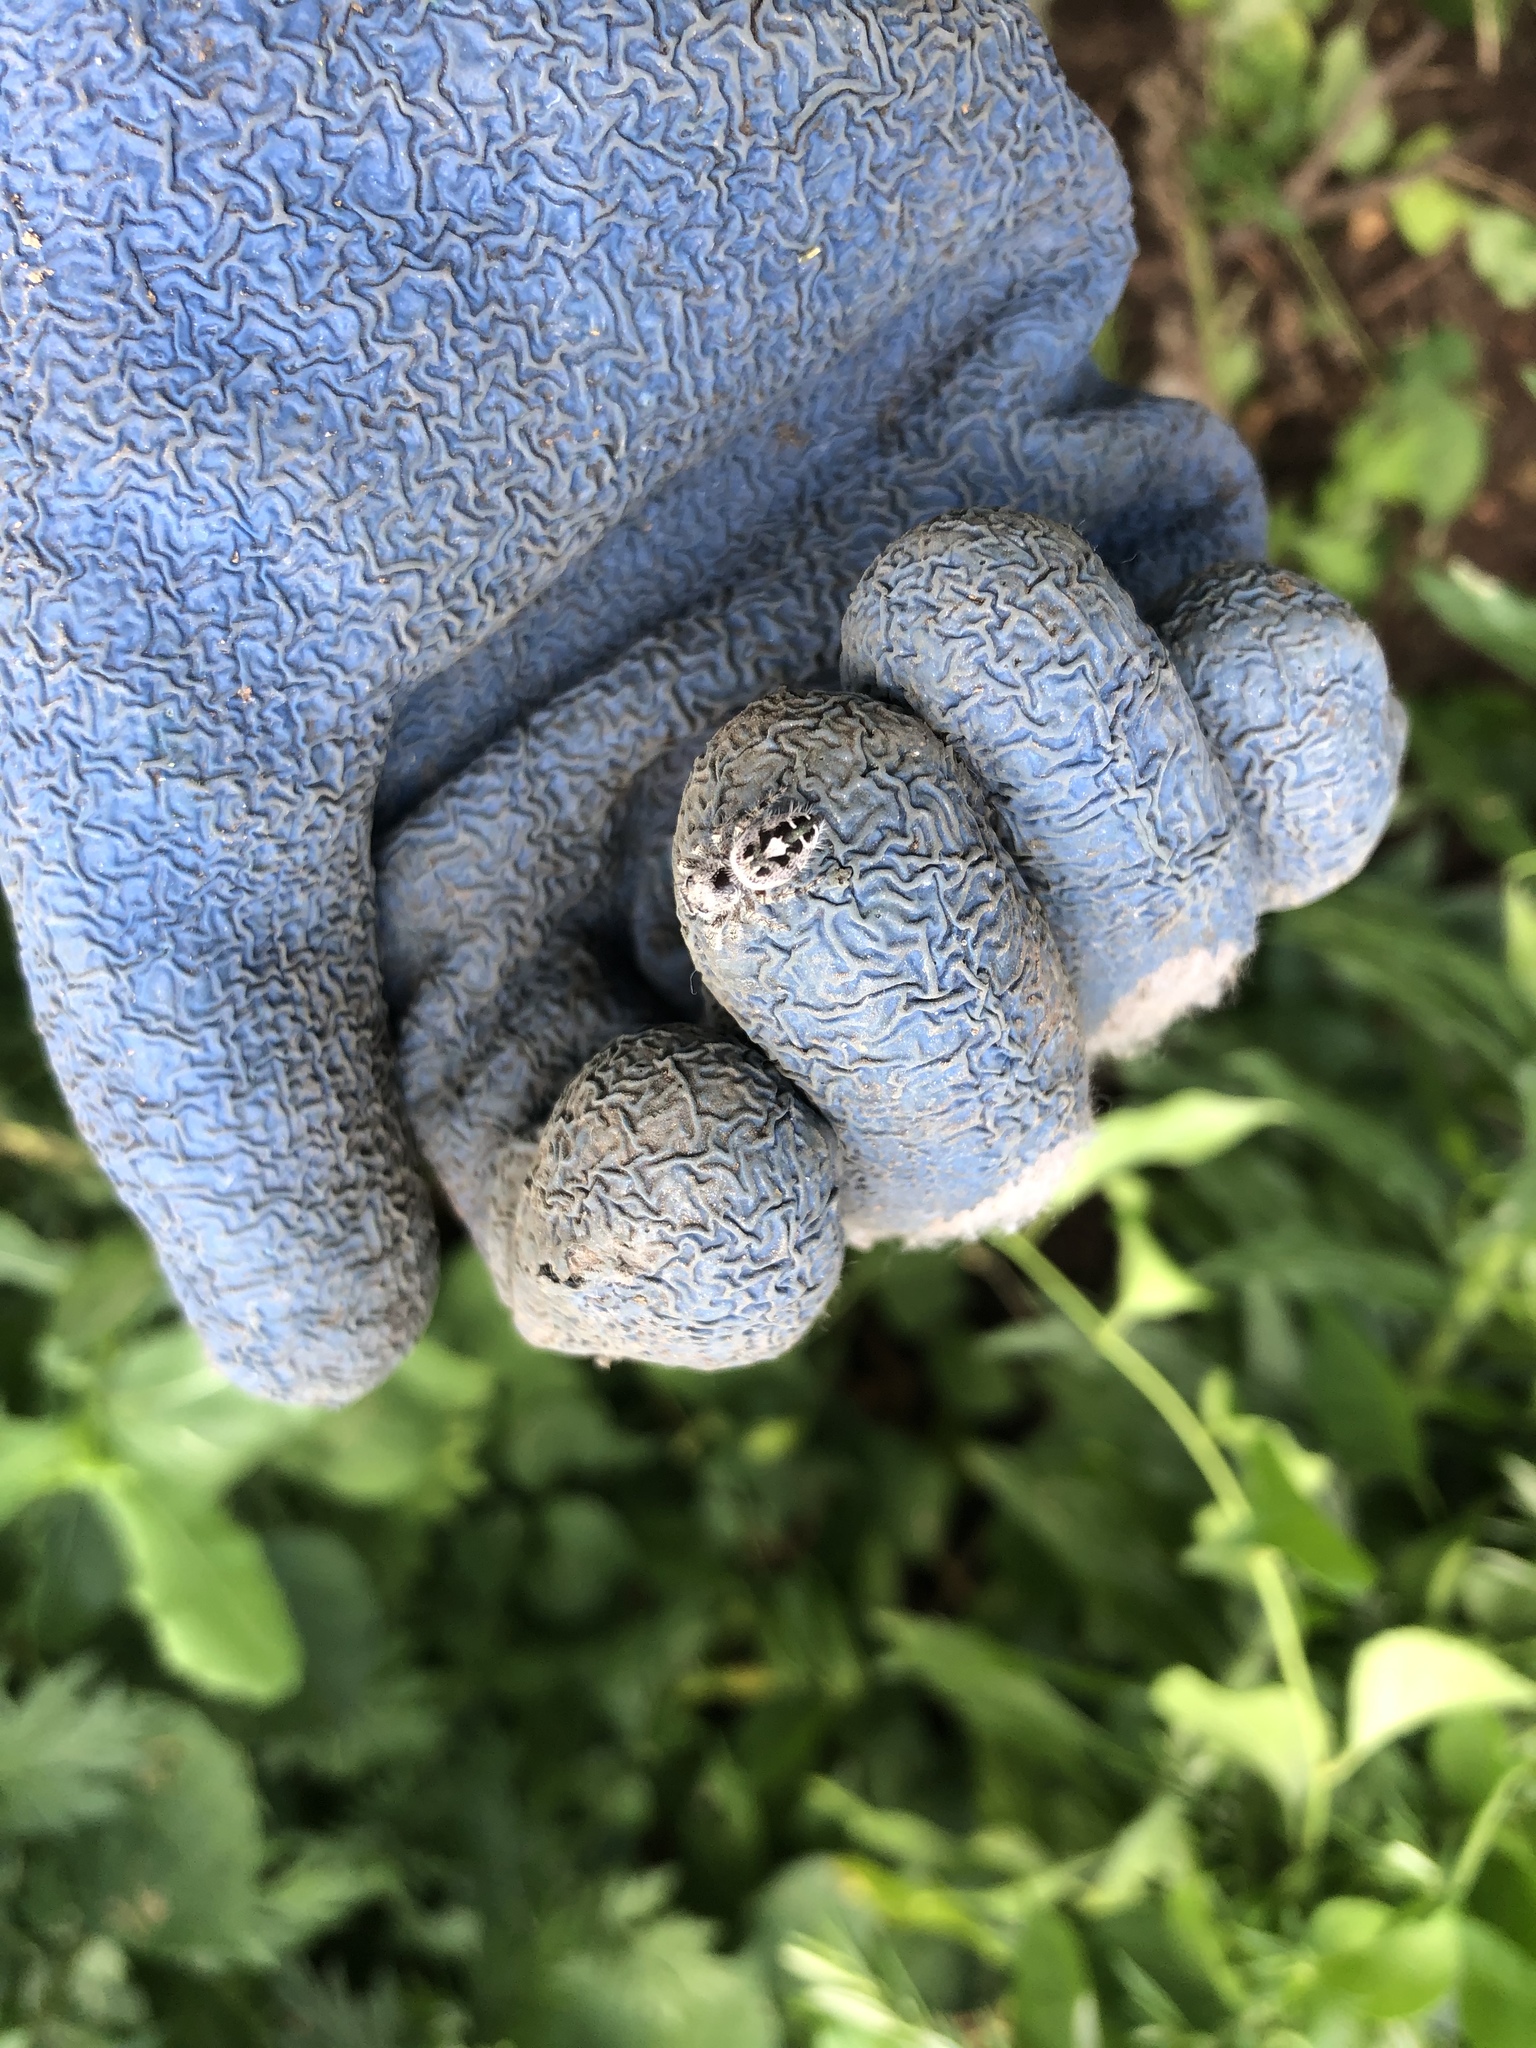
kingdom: Animalia
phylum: Arthropoda
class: Arachnida
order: Araneae
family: Salticidae
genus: Phidippus
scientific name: Phidippus putnami
